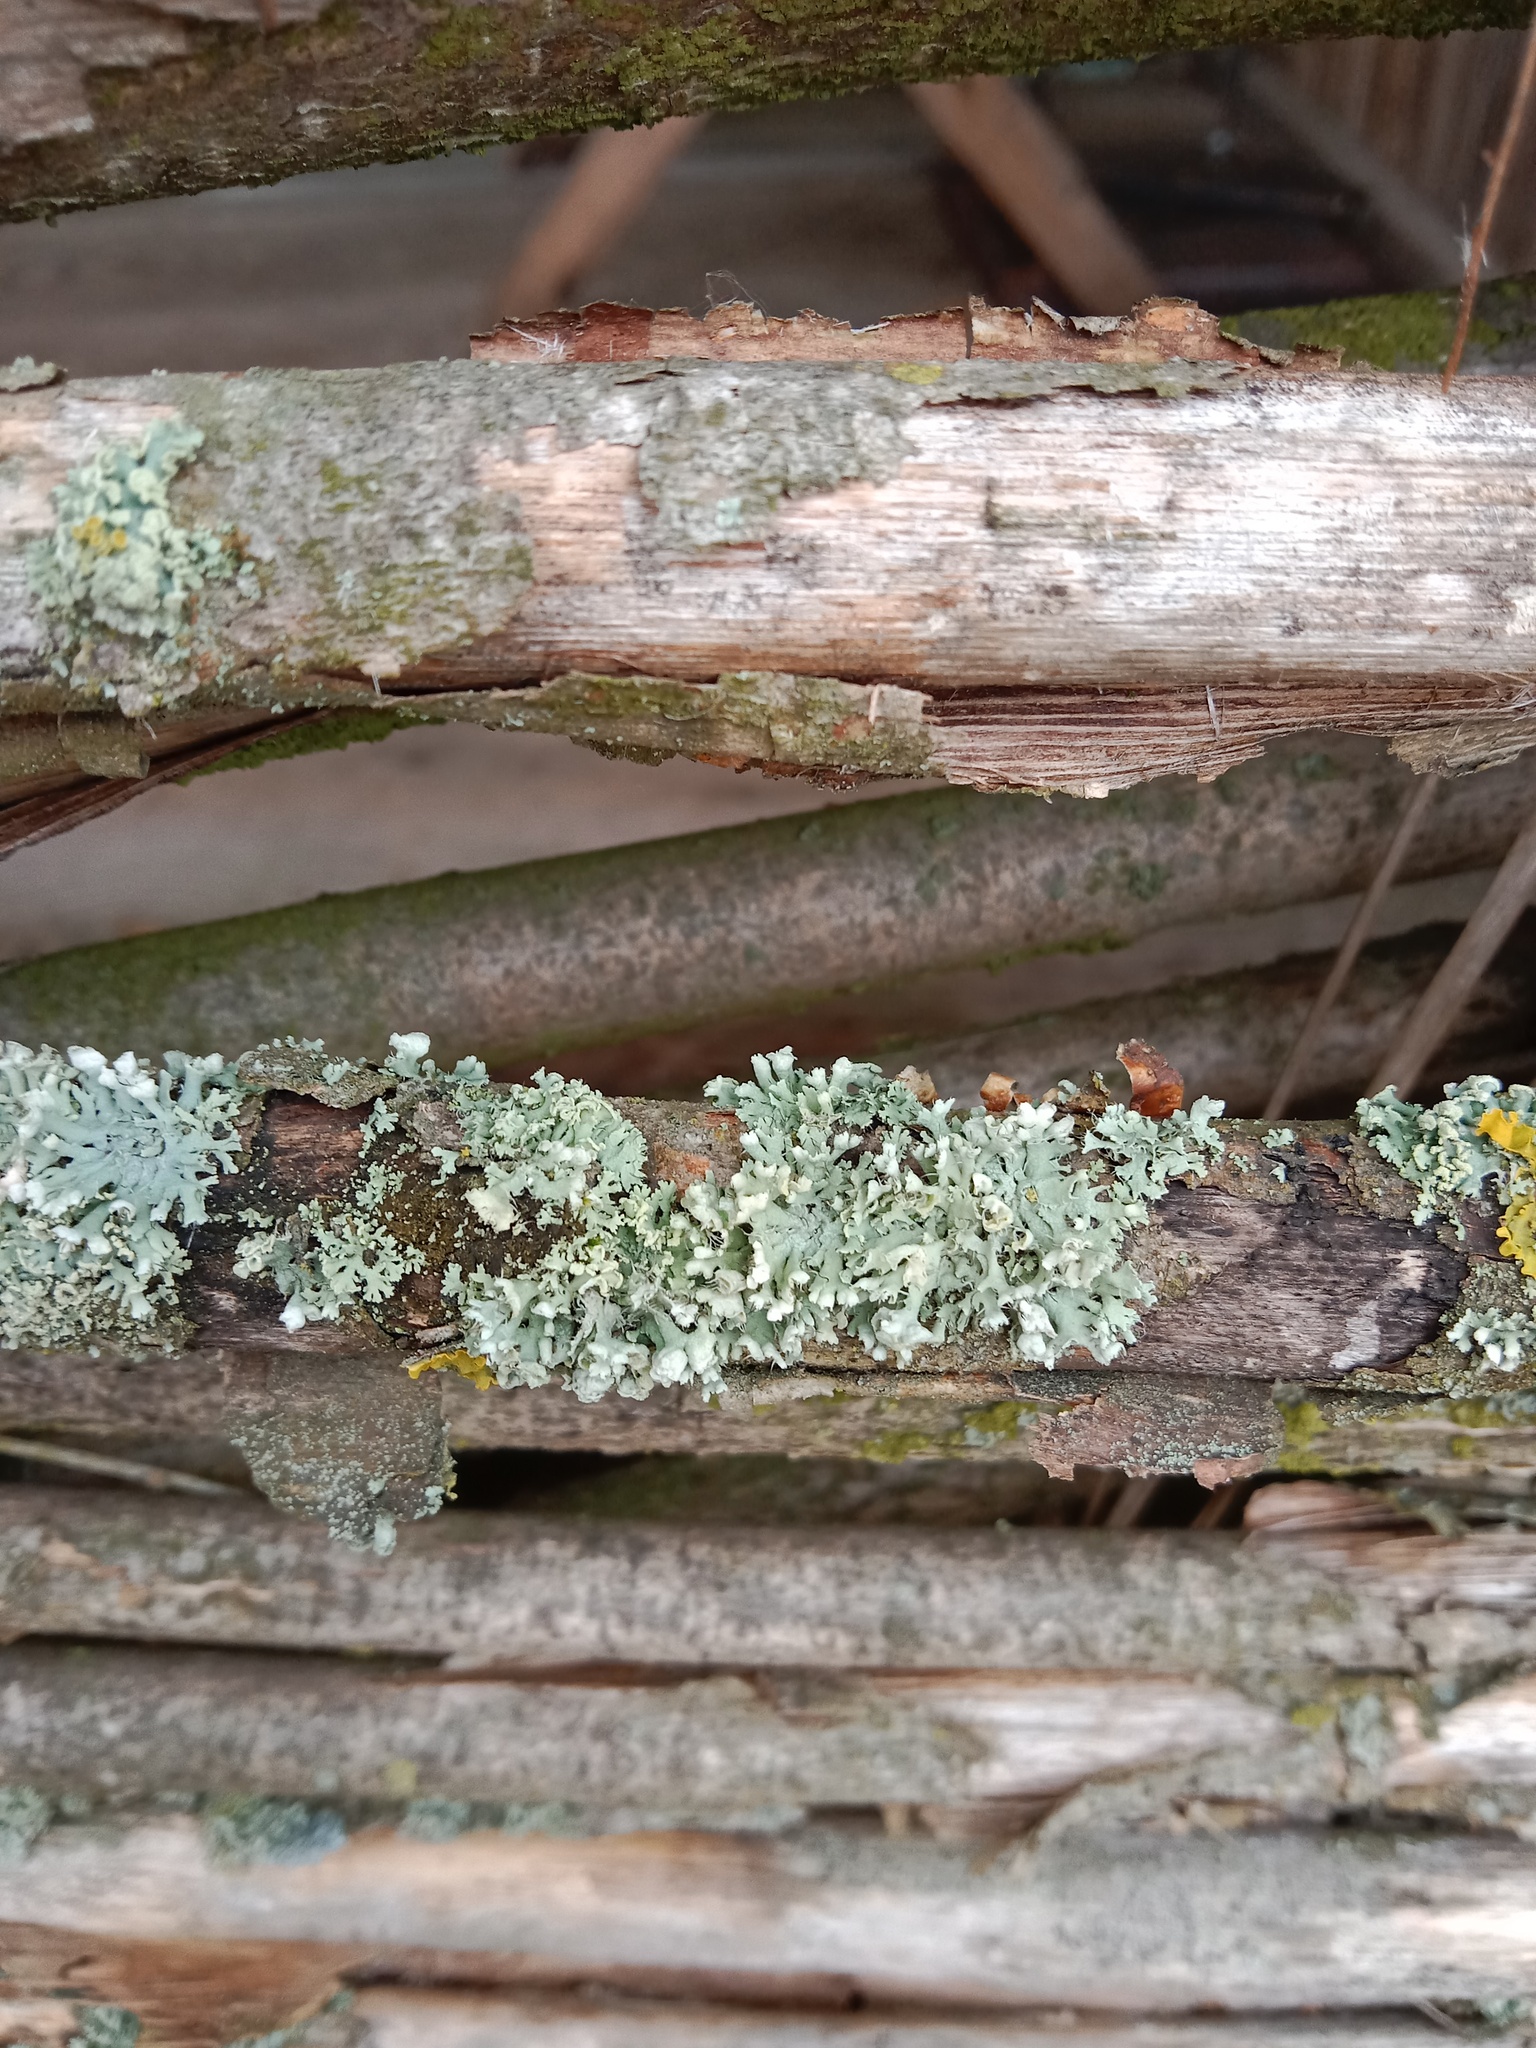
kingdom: Fungi
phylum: Ascomycota
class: Lecanoromycetes
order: Caliciales
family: Physciaceae
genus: Physcia
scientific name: Physcia adscendens
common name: Hooded rosette lichen
